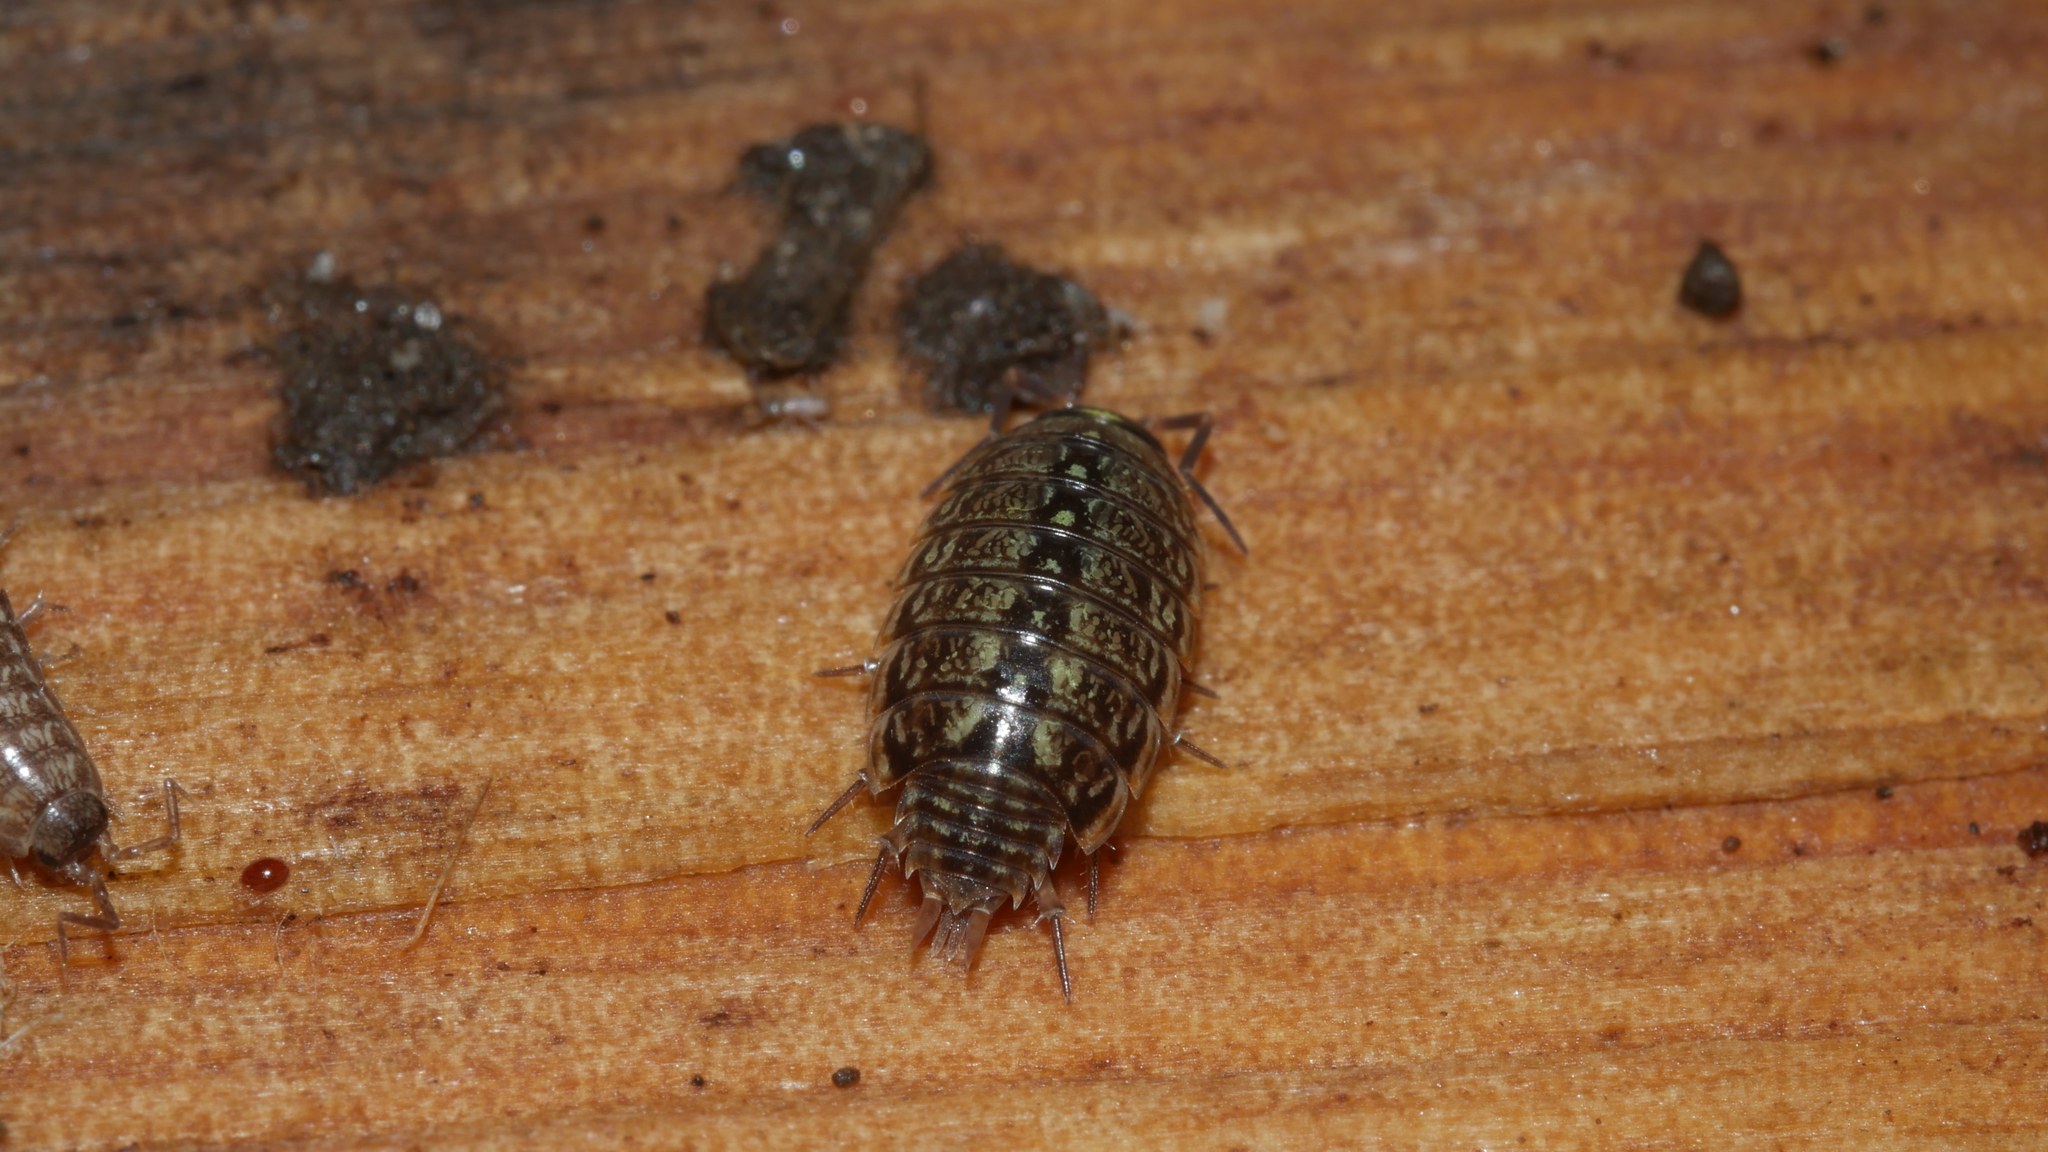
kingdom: Animalia
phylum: Arthropoda
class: Malacostraca
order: Isopoda
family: Philosciidae
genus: Philoscia
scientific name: Philoscia muscorum
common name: Common striped woodlouse
